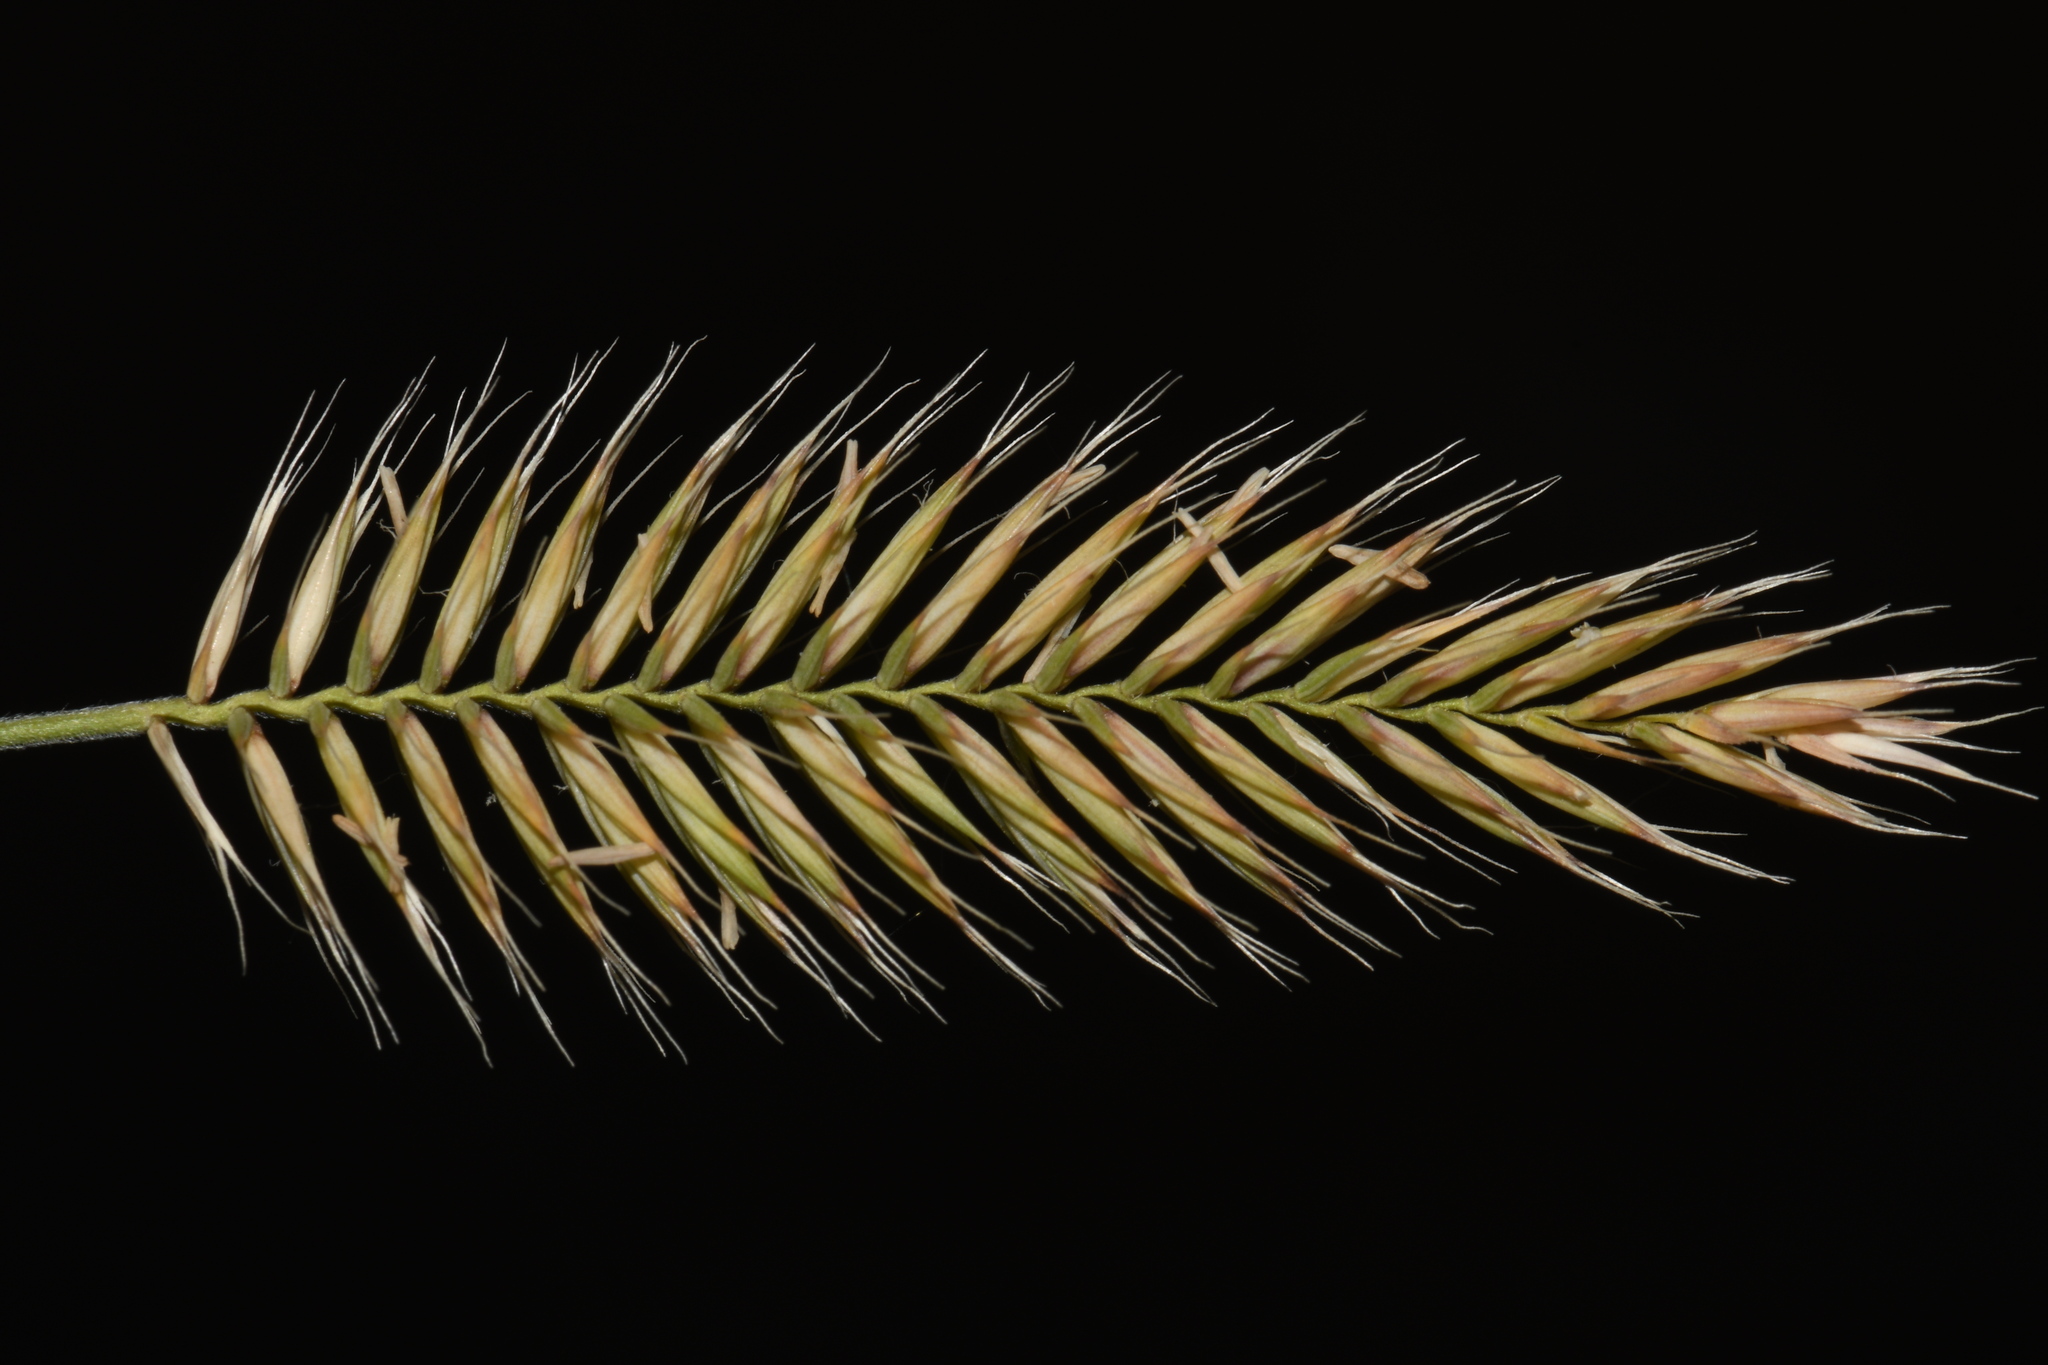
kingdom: Plantae
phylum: Tracheophyta
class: Liliopsida
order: Poales
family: Poaceae
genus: Agropyron
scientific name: Agropyron cristatum
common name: Crested wheatgrass
